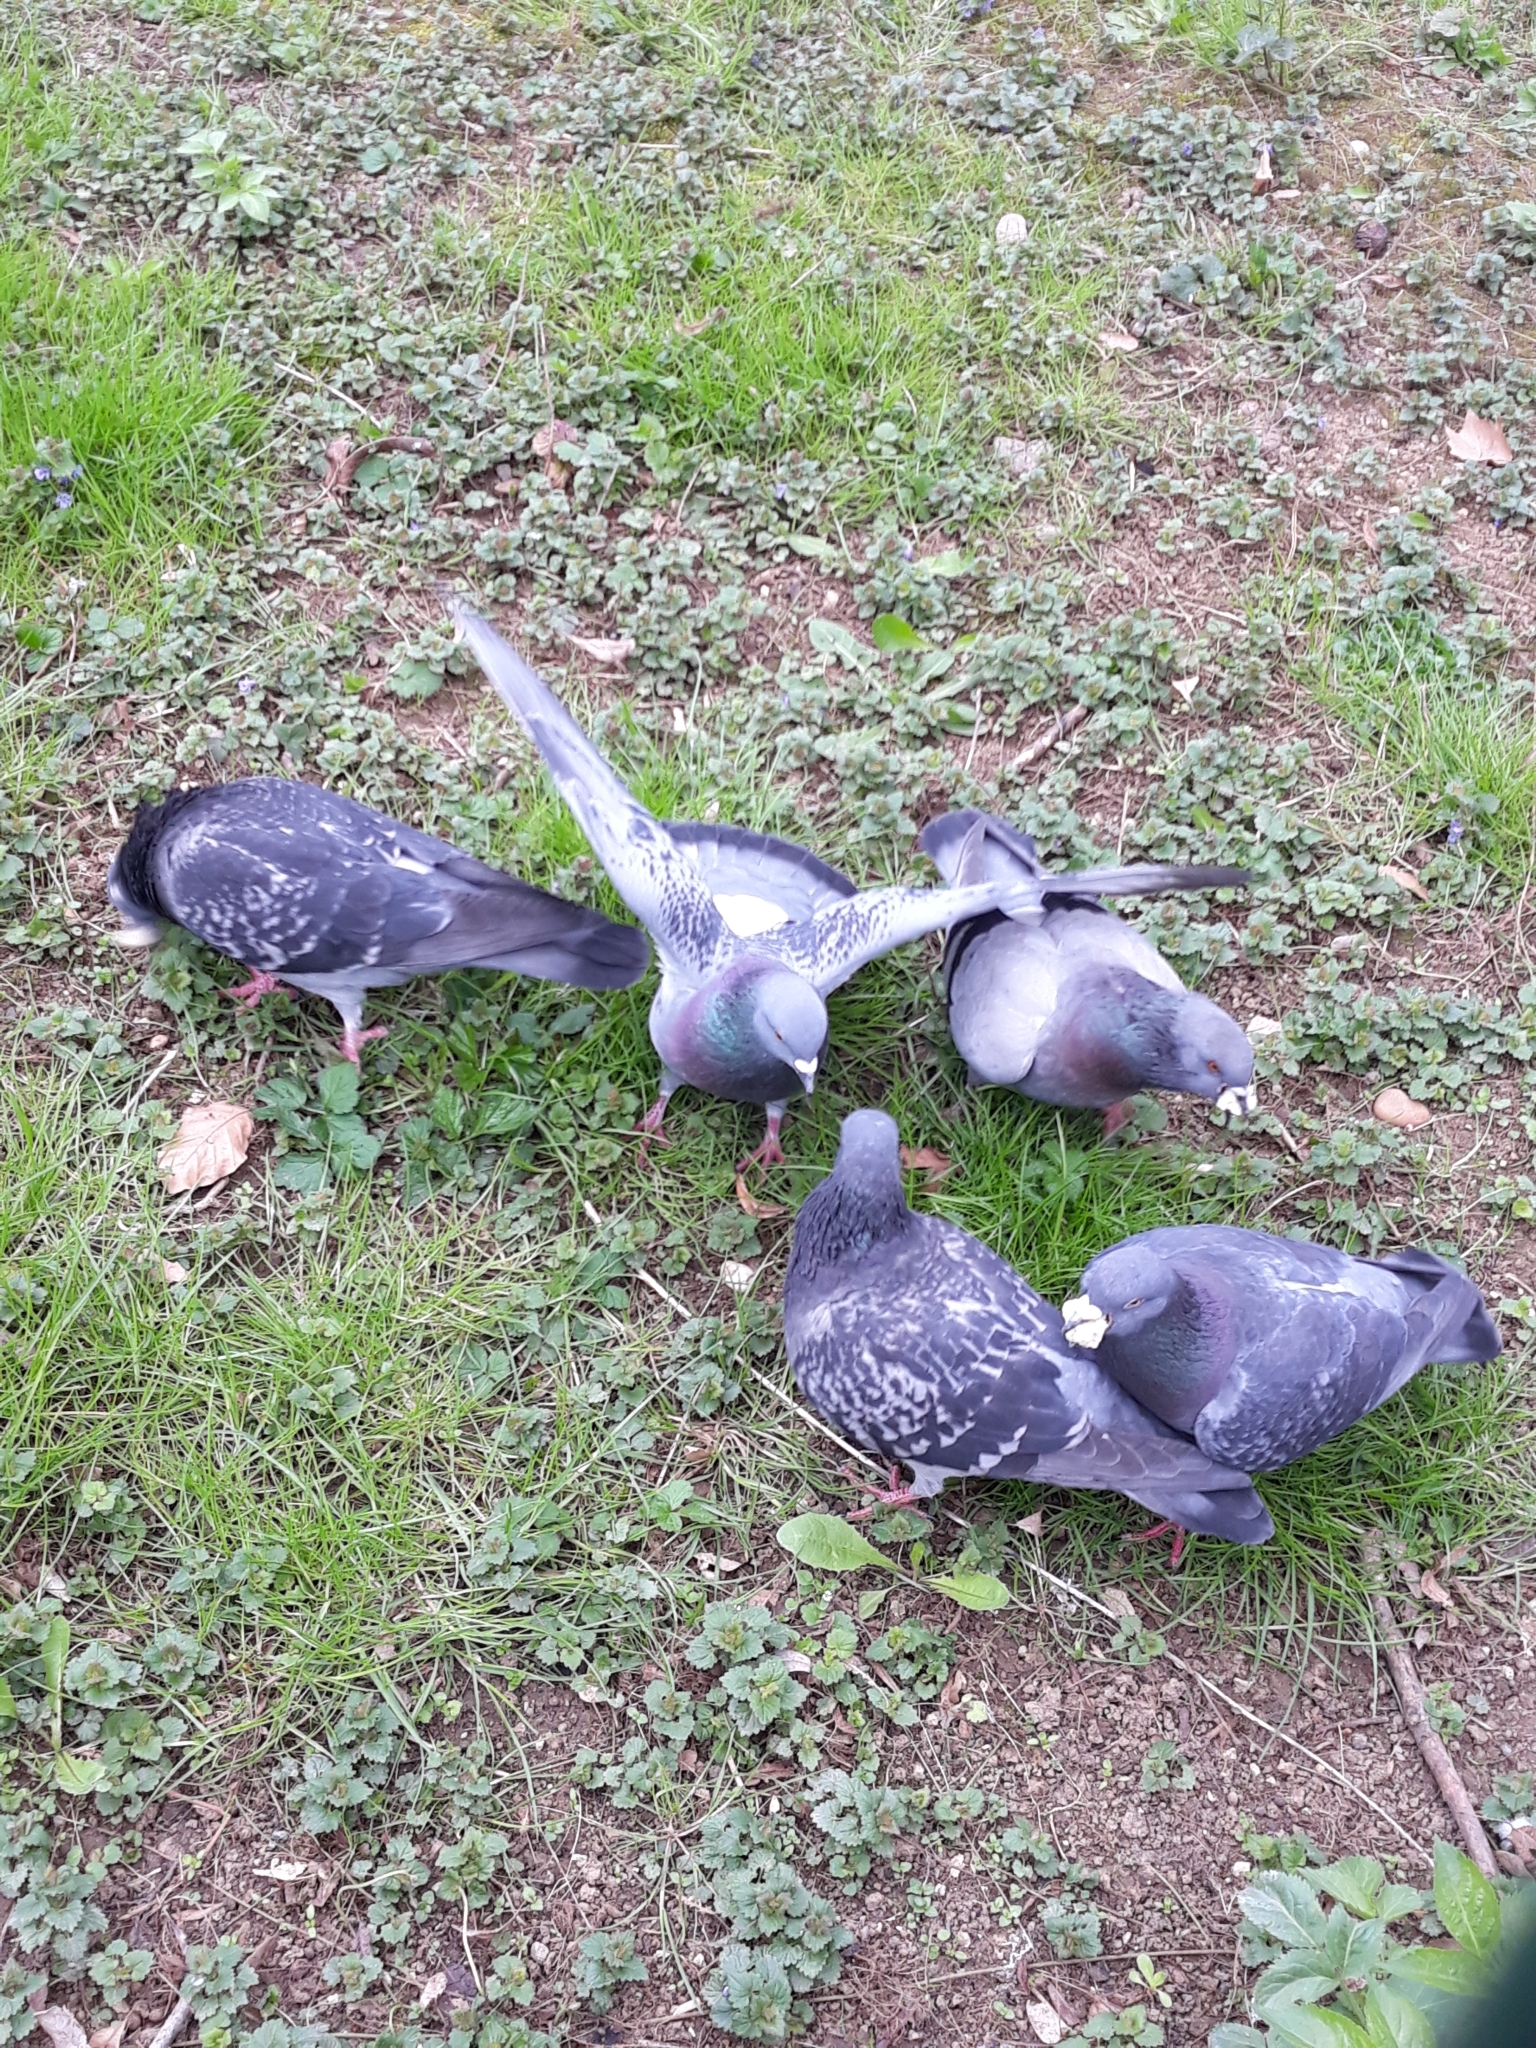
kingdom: Animalia
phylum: Chordata
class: Aves
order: Columbiformes
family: Columbidae
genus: Columba
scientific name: Columba livia
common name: Rock pigeon
